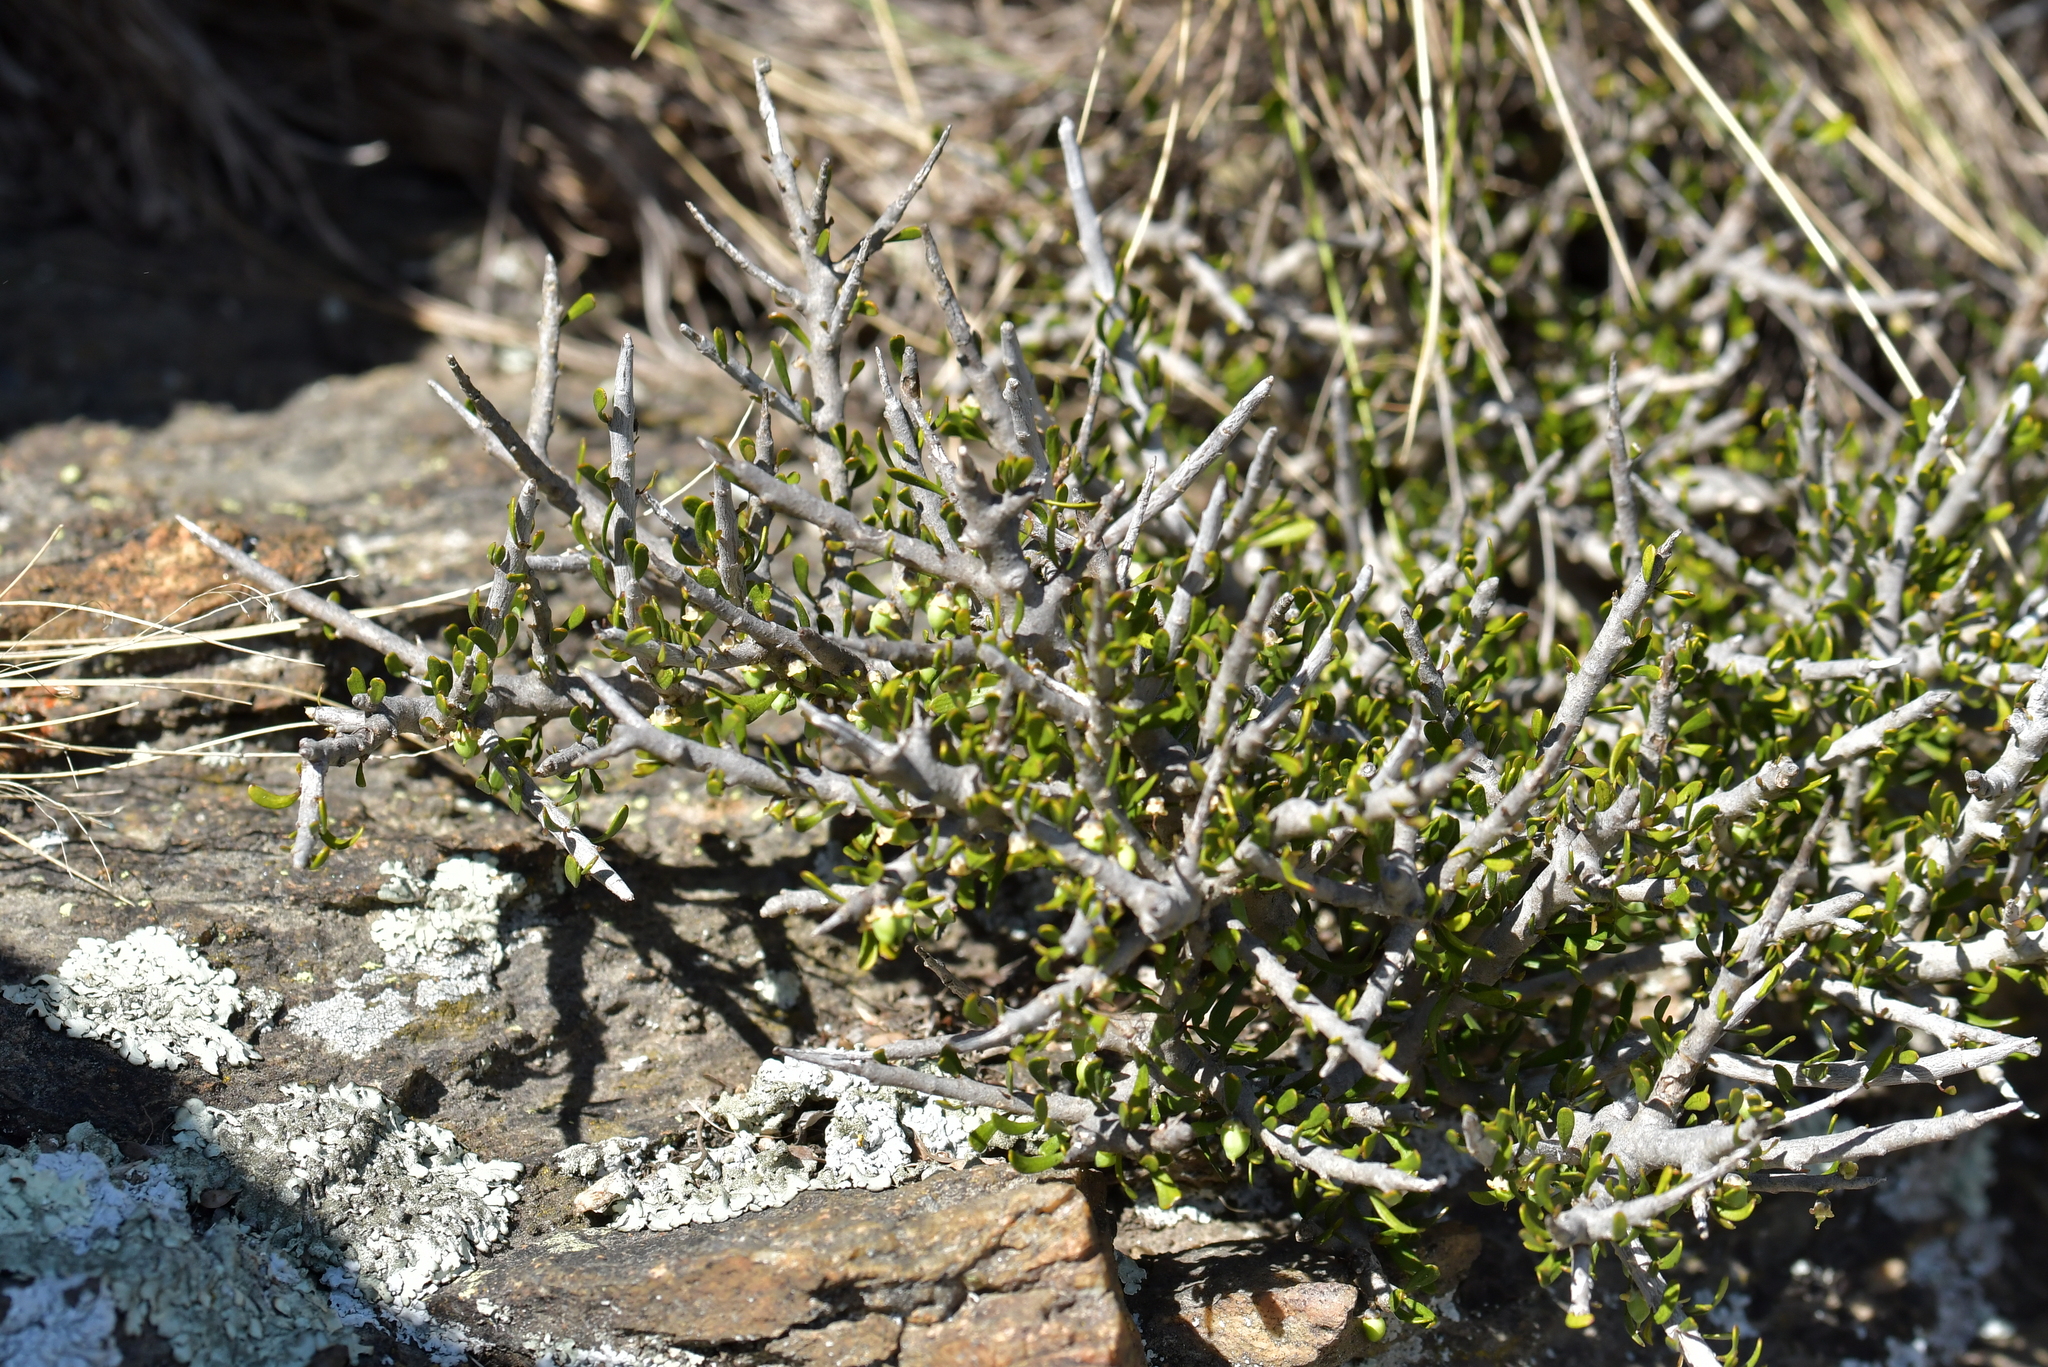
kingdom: Plantae
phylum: Tracheophyta
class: Magnoliopsida
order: Malpighiales
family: Violaceae
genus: Melicytus
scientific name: Melicytus alpinus
